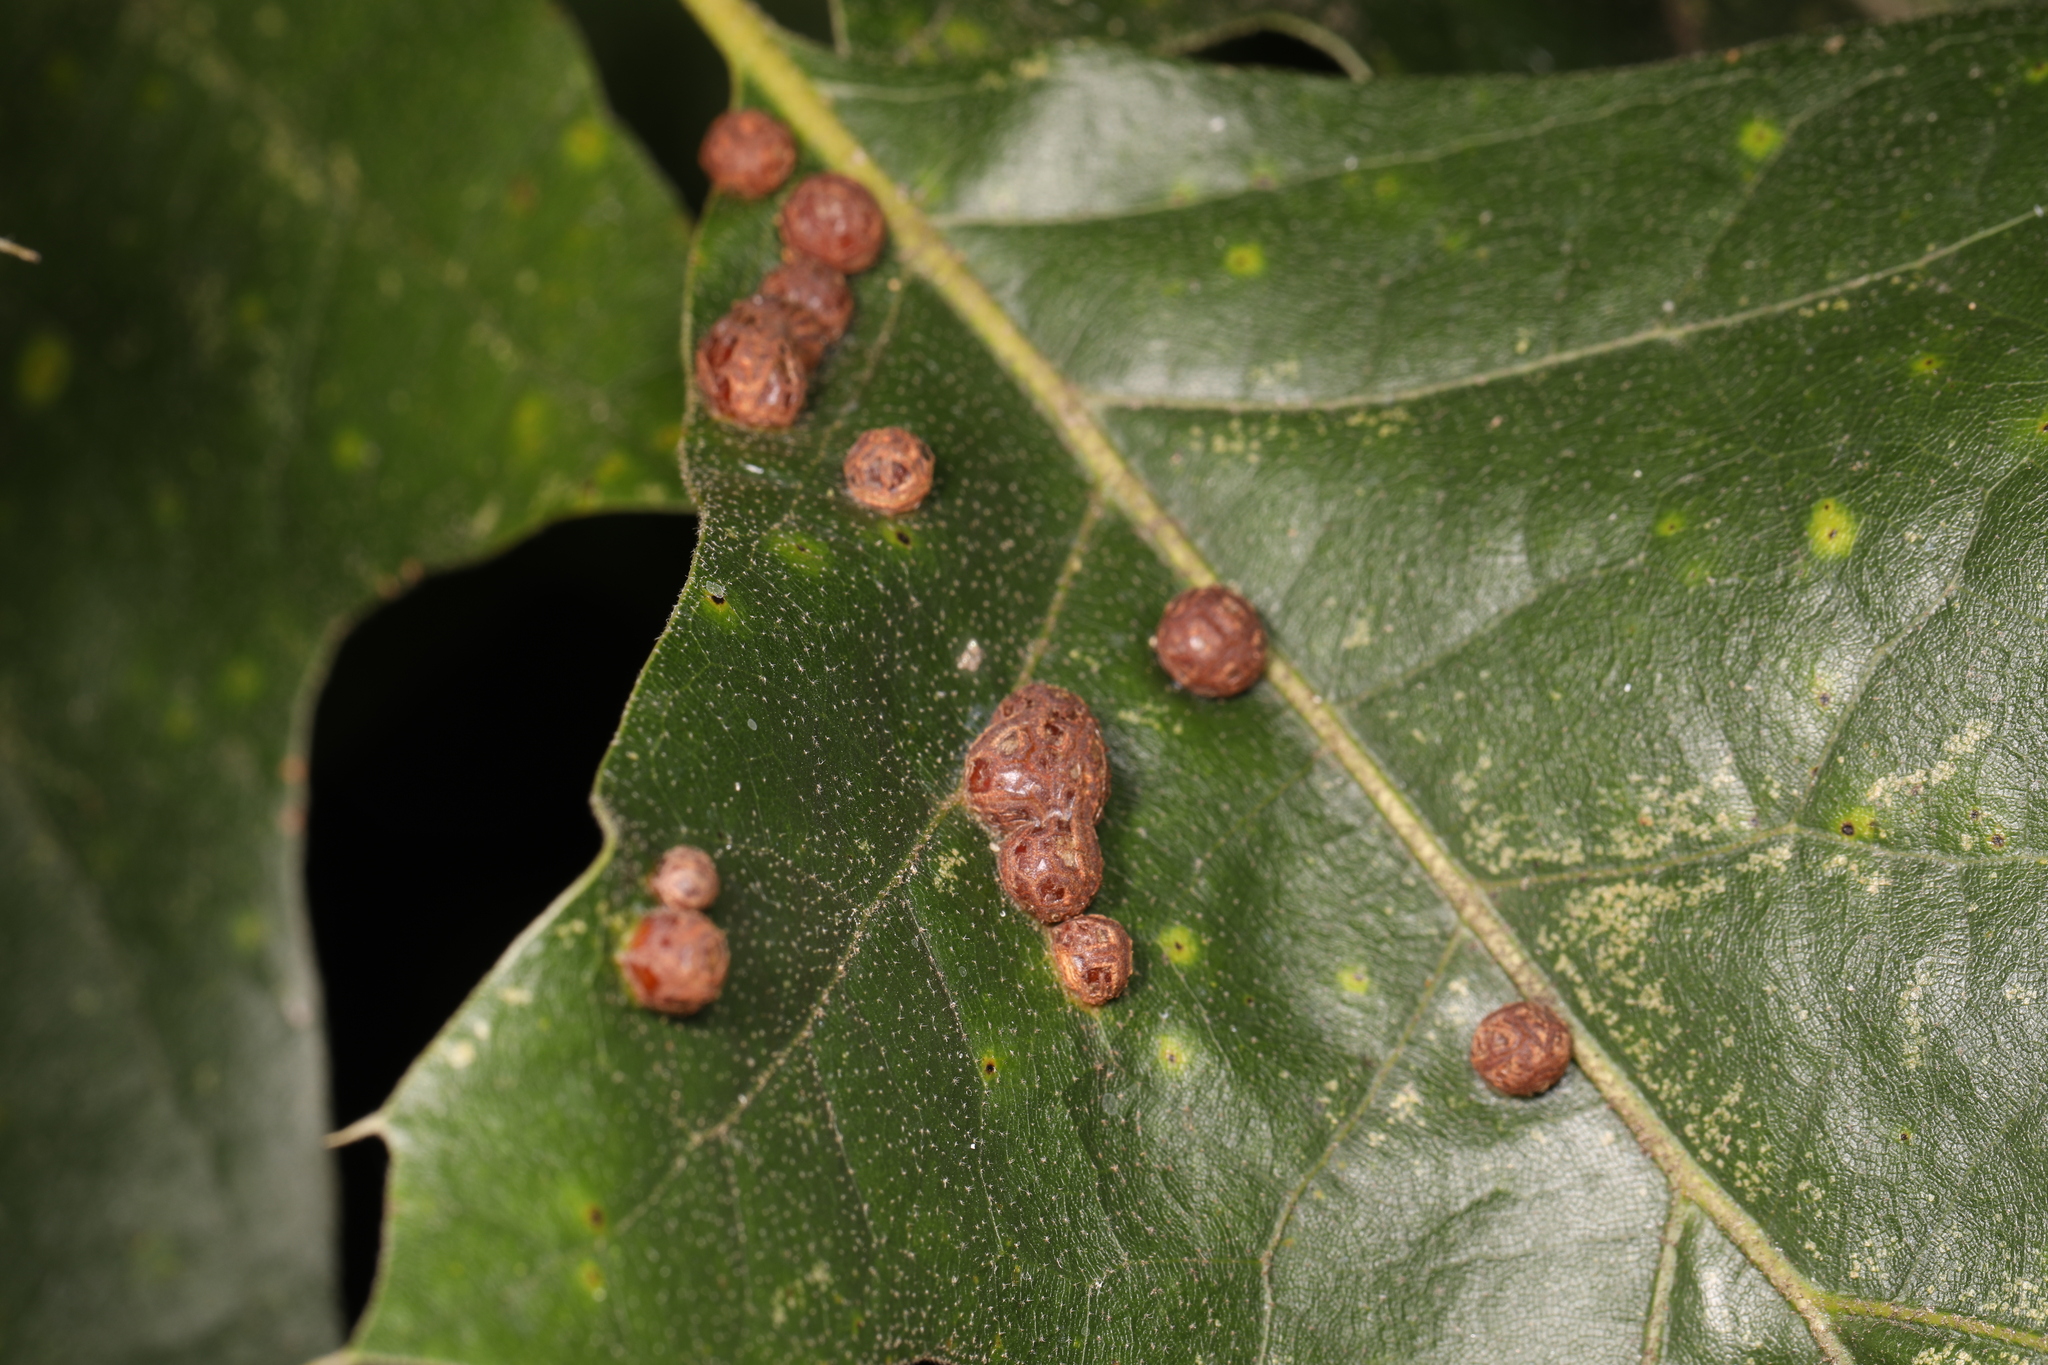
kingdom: Animalia
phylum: Arthropoda
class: Insecta
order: Diptera
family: Cecidomyiidae
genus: Polystepha
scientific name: Polystepha pilulae
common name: Oak leaf gall midge
